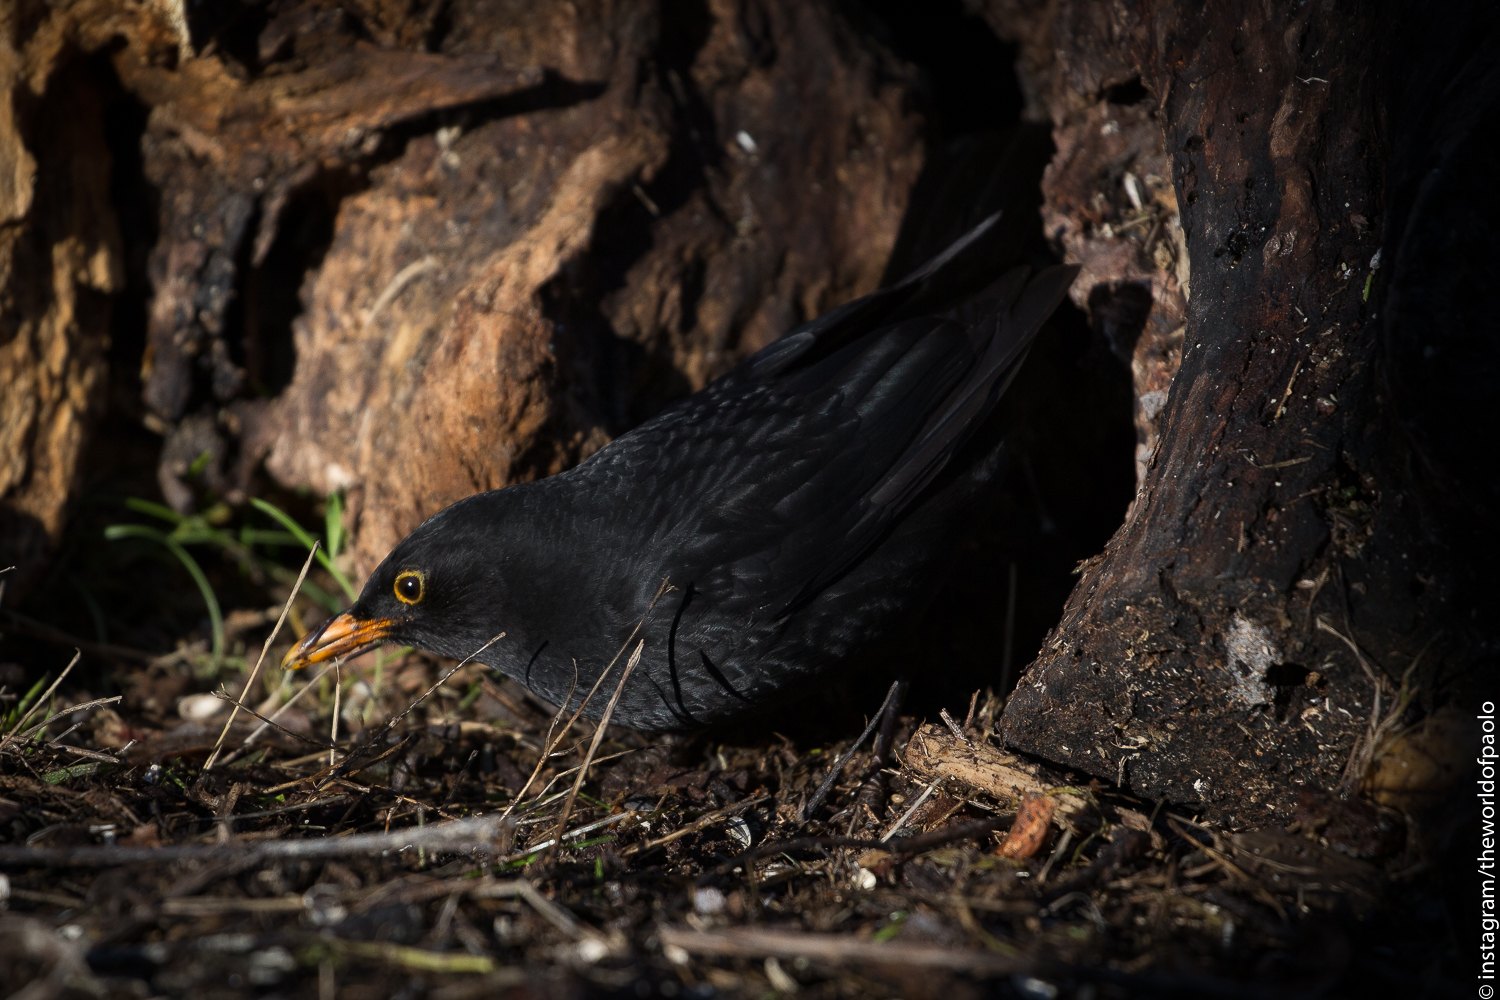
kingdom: Animalia
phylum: Chordata
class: Aves
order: Passeriformes
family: Turdidae
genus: Turdus
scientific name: Turdus merula
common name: Common blackbird
